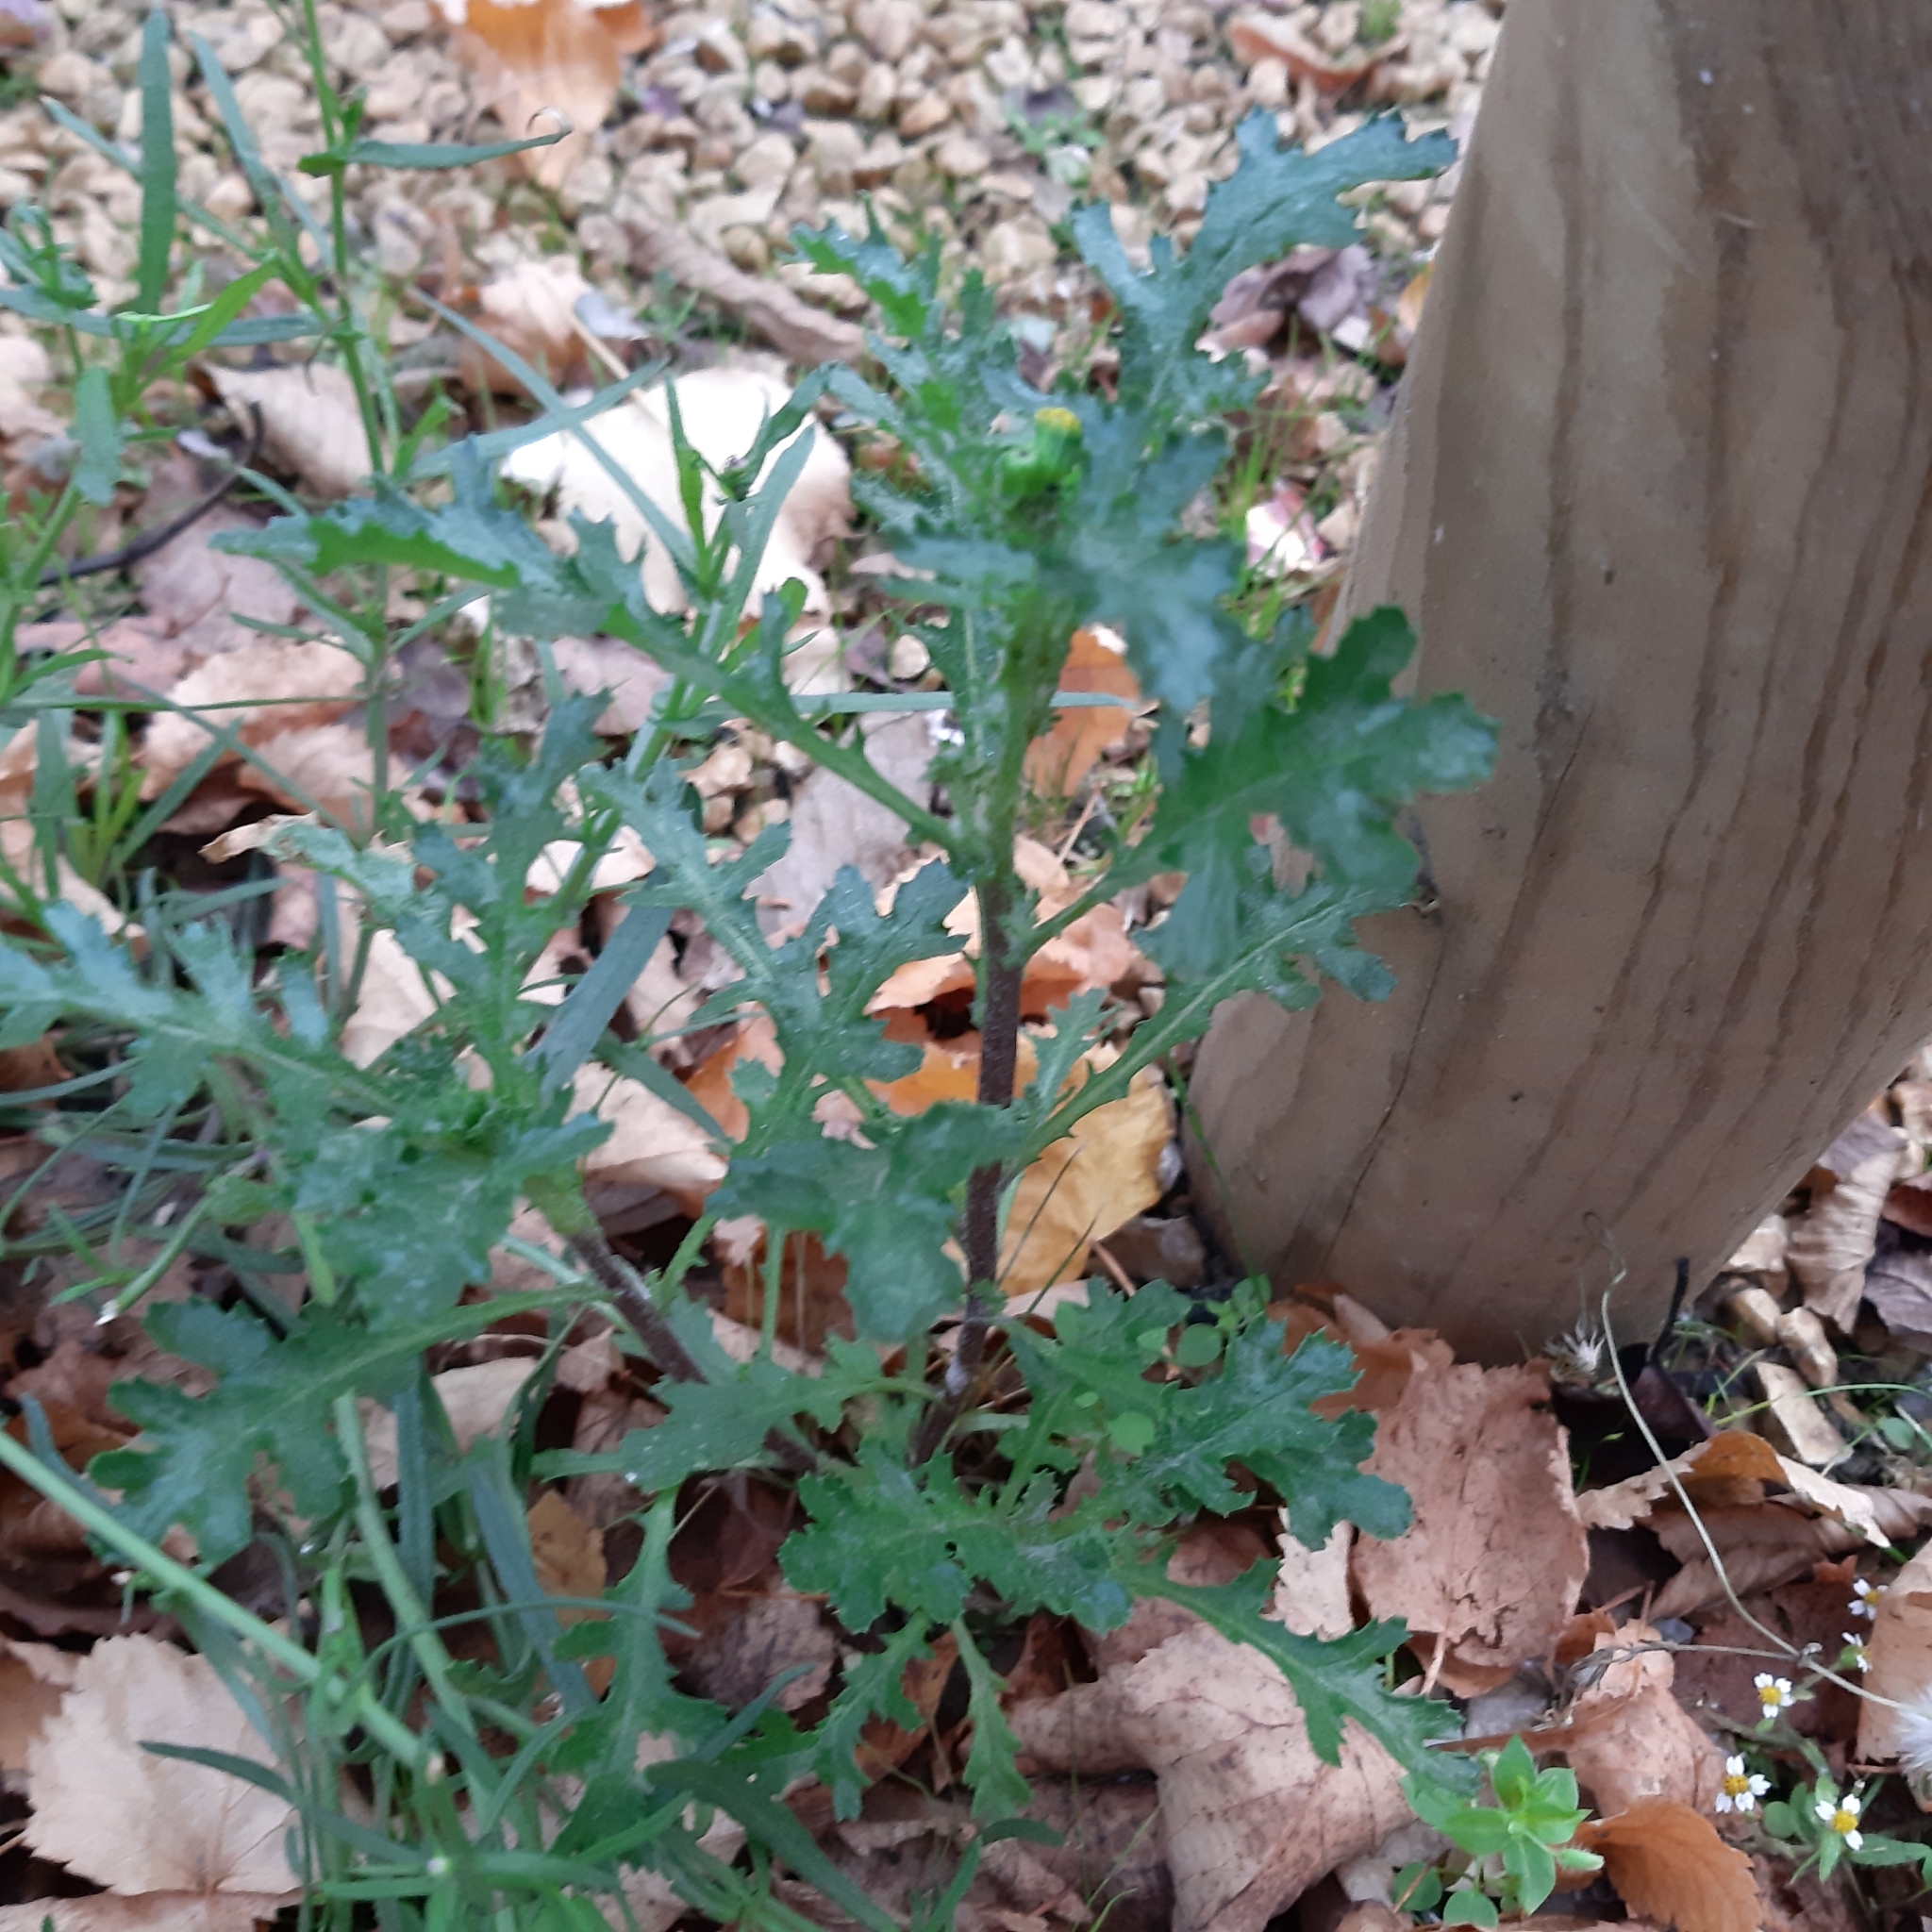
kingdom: Plantae
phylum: Tracheophyta
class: Magnoliopsida
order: Asterales
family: Asteraceae
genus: Senecio
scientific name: Senecio vulgaris
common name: Old-man-in-the-spring
